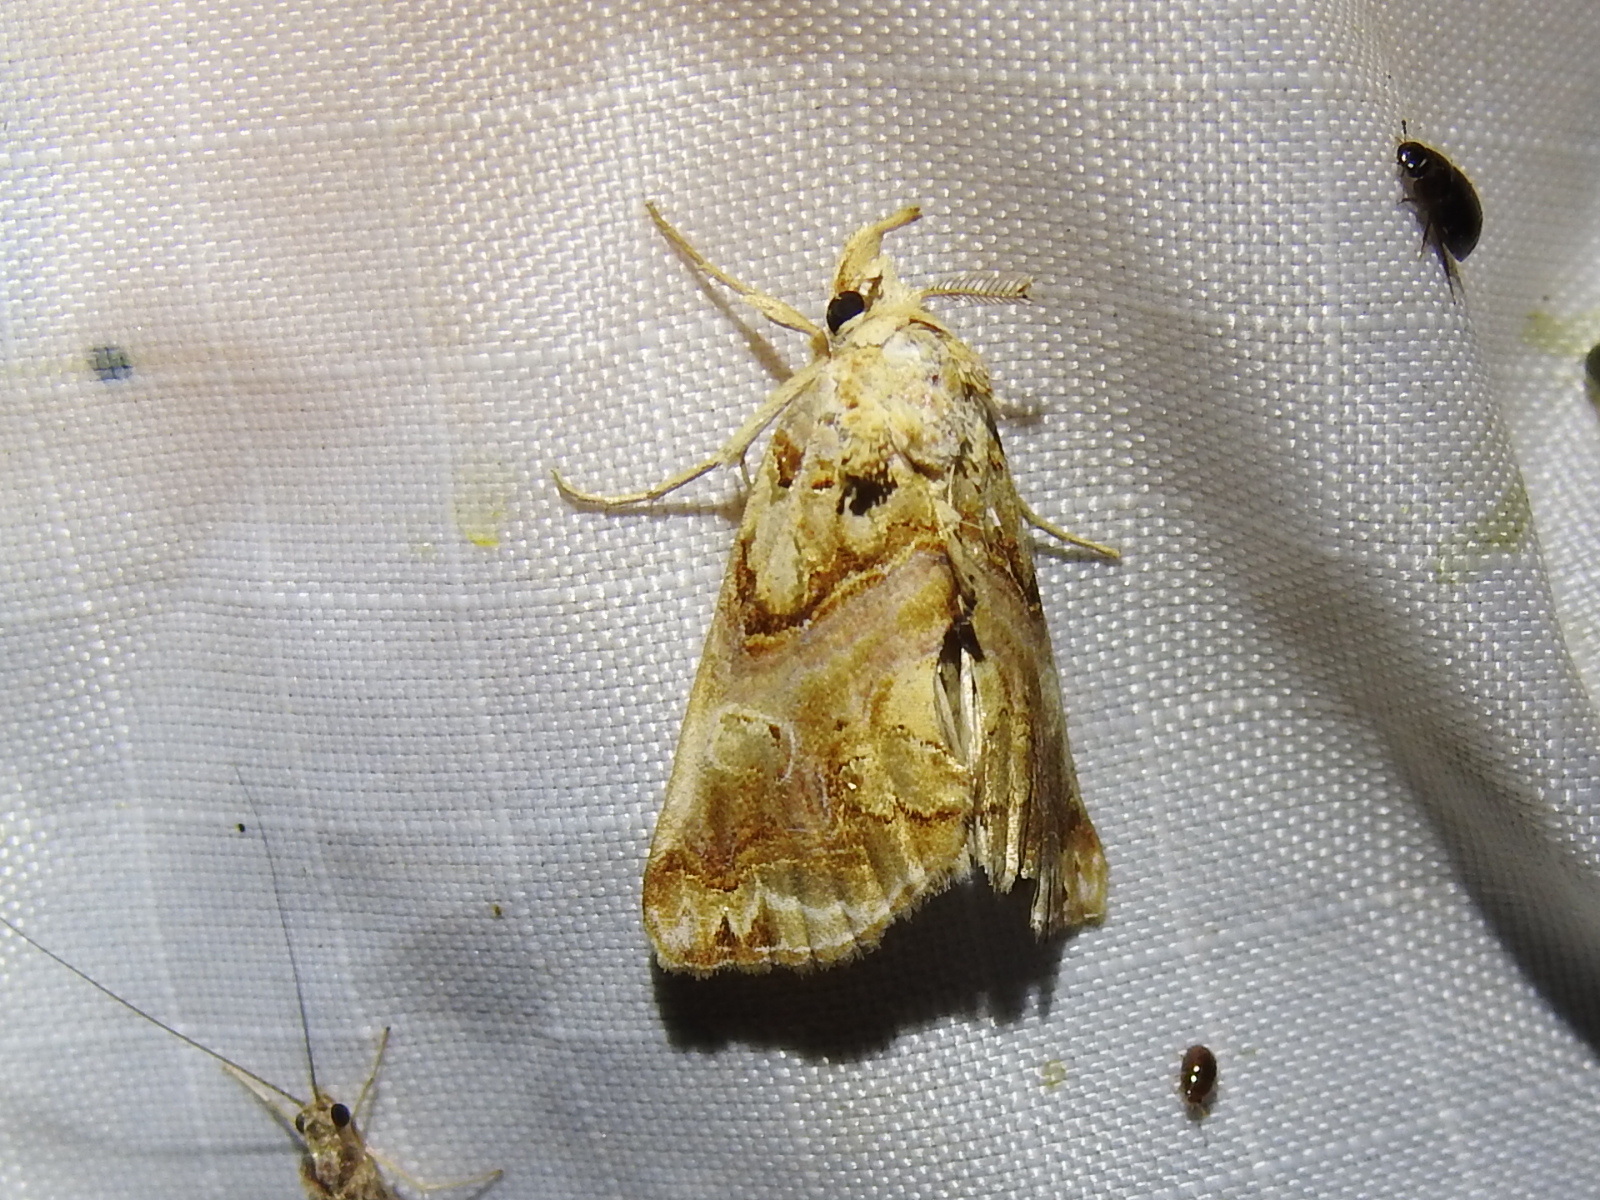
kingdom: Animalia
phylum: Arthropoda
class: Insecta
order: Lepidoptera
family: Erebidae
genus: Plusiodonta
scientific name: Plusiodonta compressipalpis
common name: Moonseed moth
